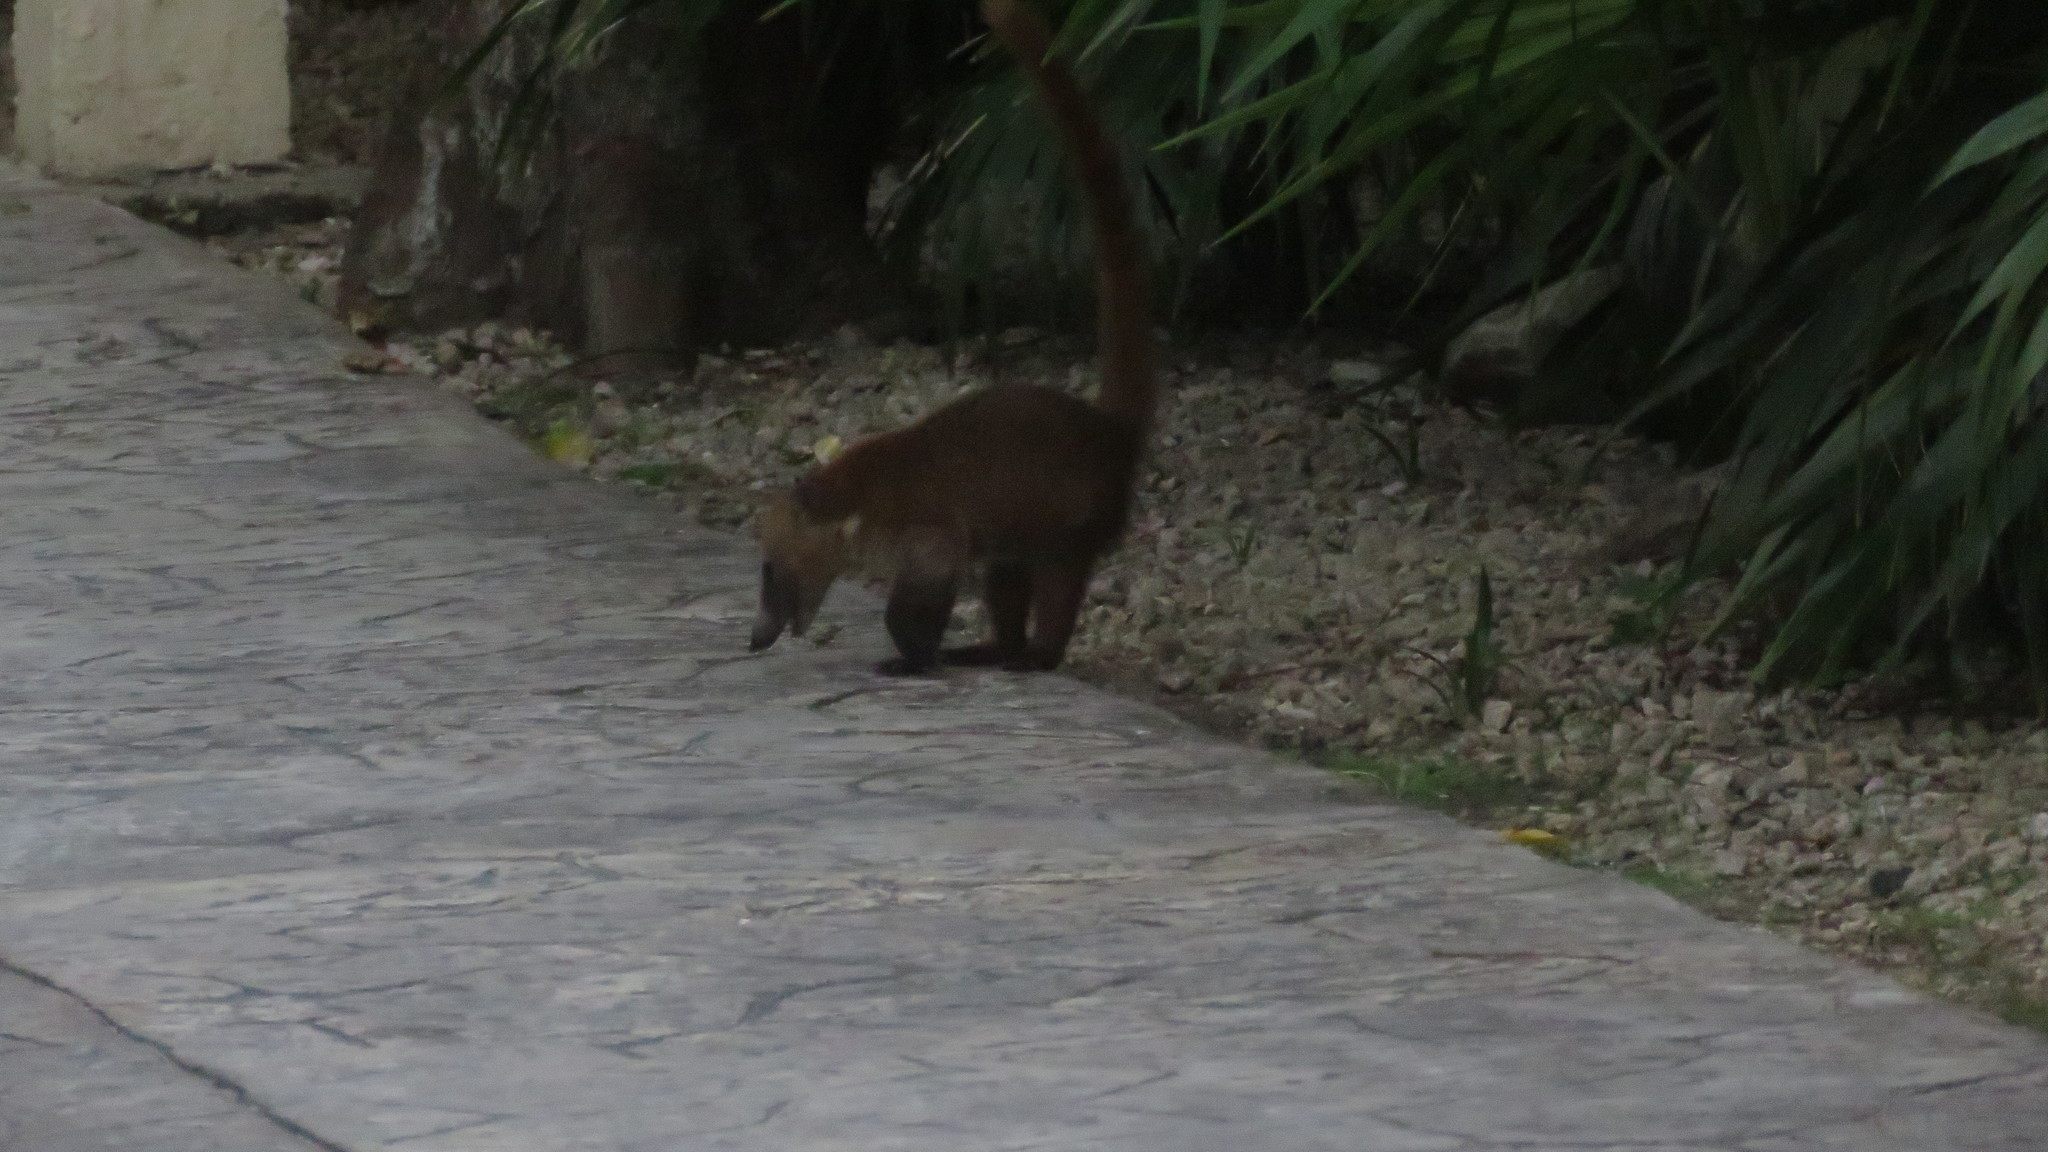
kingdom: Animalia
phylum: Chordata
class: Mammalia
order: Carnivora
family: Procyonidae
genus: Nasua
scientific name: Nasua narica
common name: White-nosed coati
